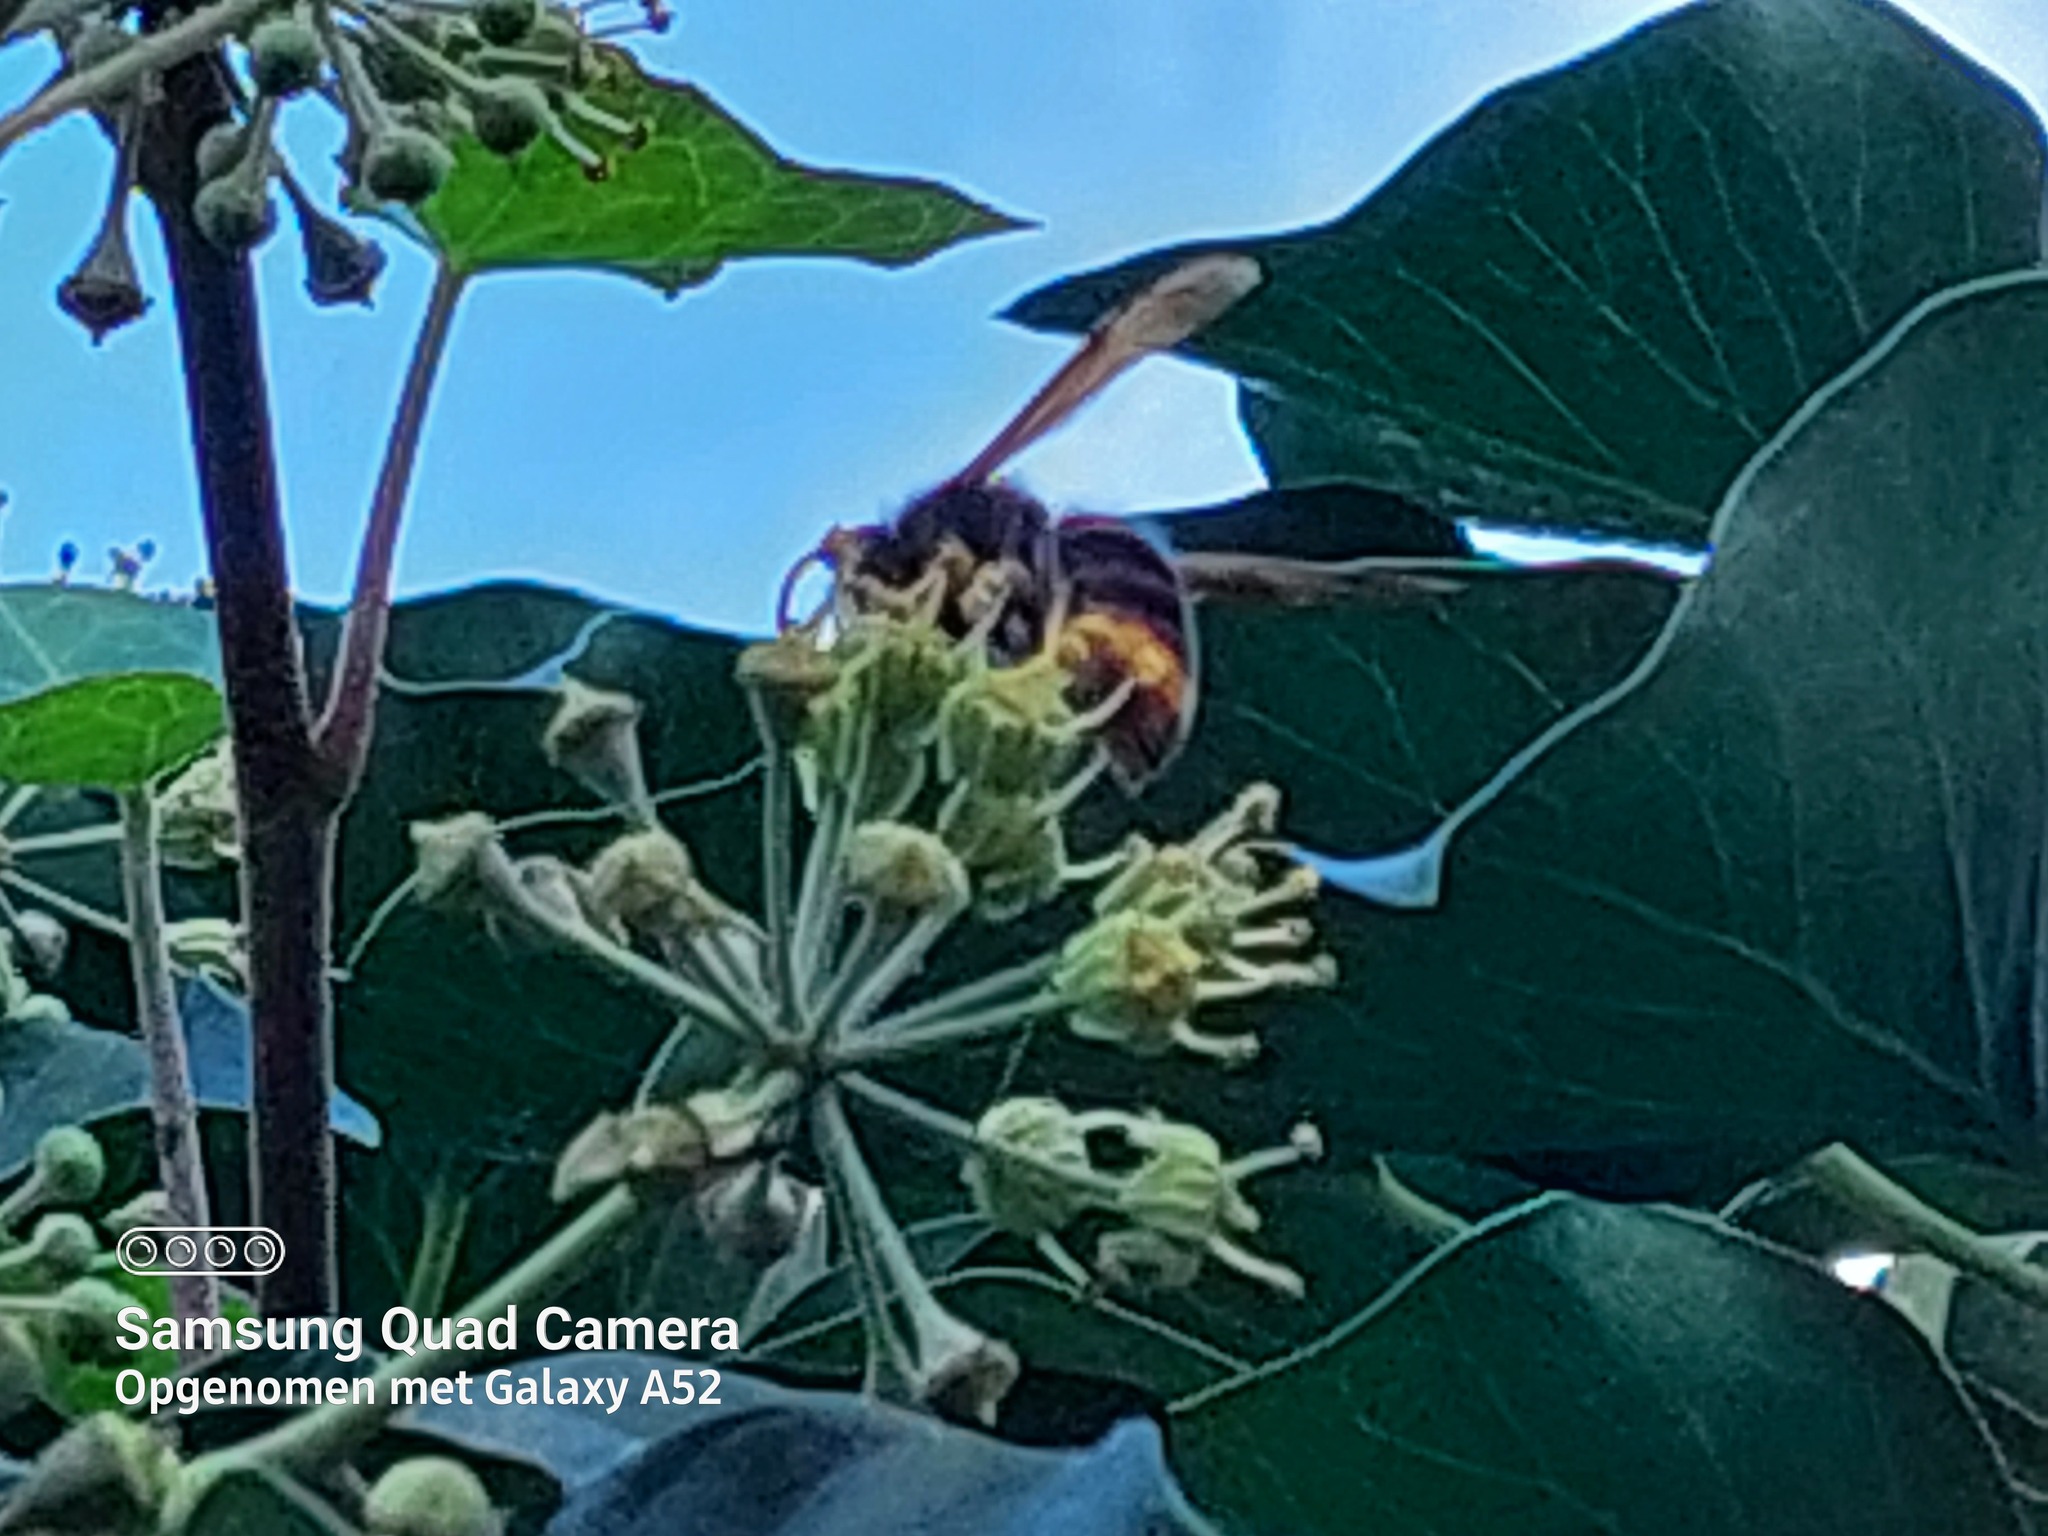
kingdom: Animalia
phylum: Arthropoda
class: Insecta
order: Hymenoptera
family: Vespidae
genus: Vespa
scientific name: Vespa velutina
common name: Asian hornet
